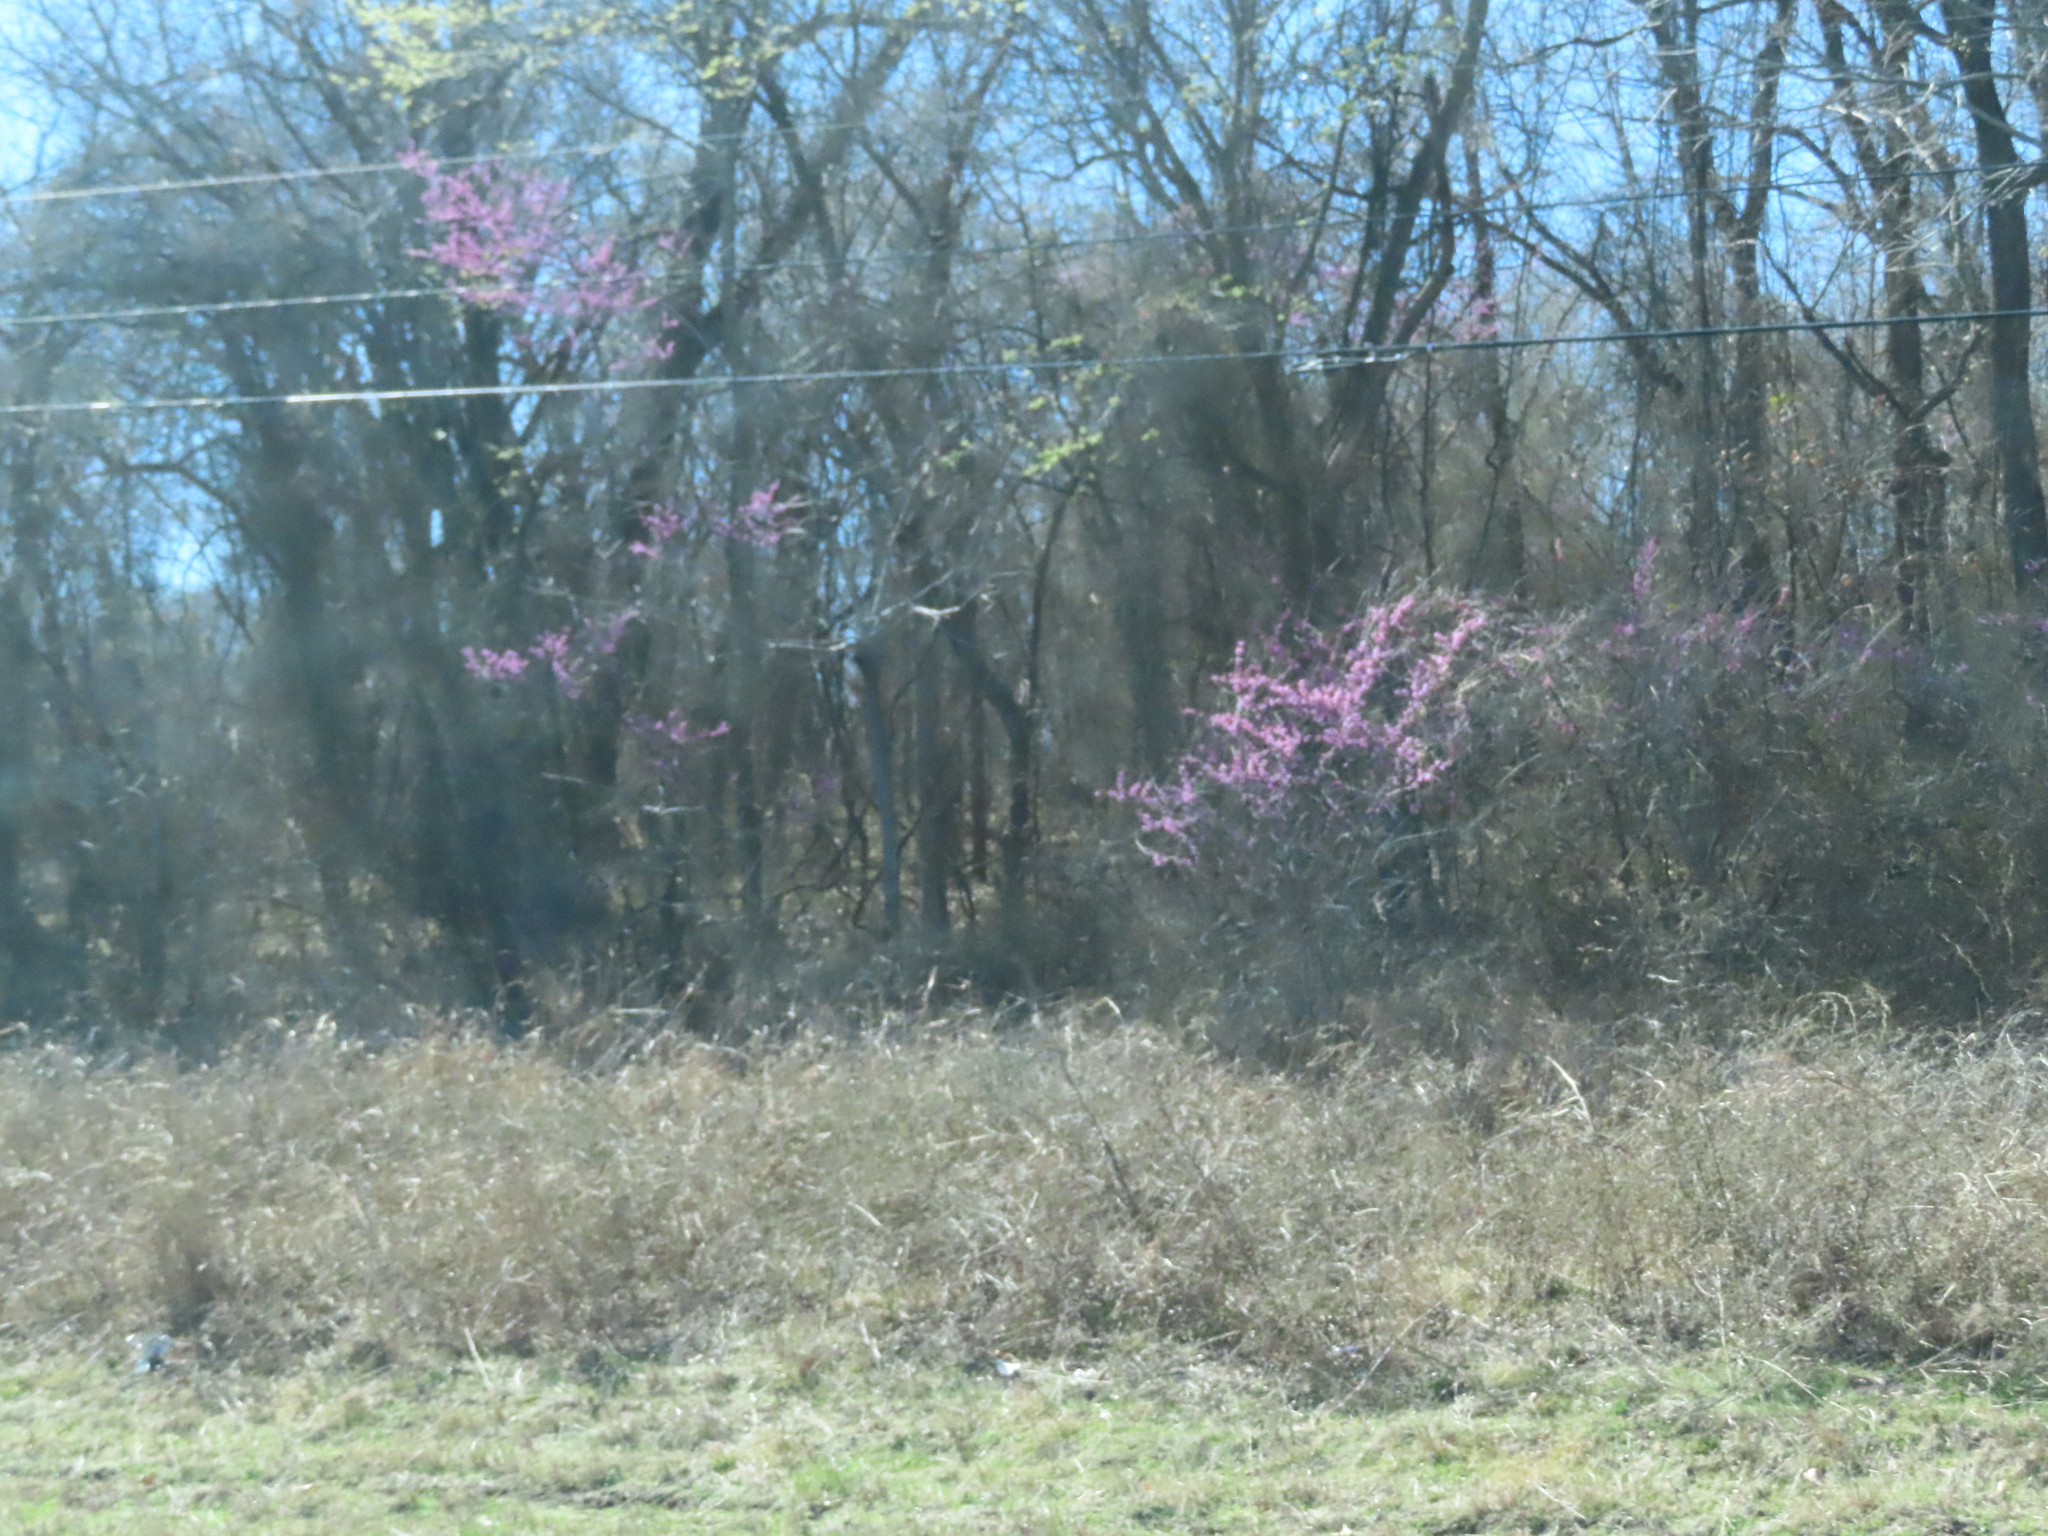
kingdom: Plantae
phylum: Tracheophyta
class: Magnoliopsida
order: Fabales
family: Fabaceae
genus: Cercis
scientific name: Cercis canadensis
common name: Eastern redbud
